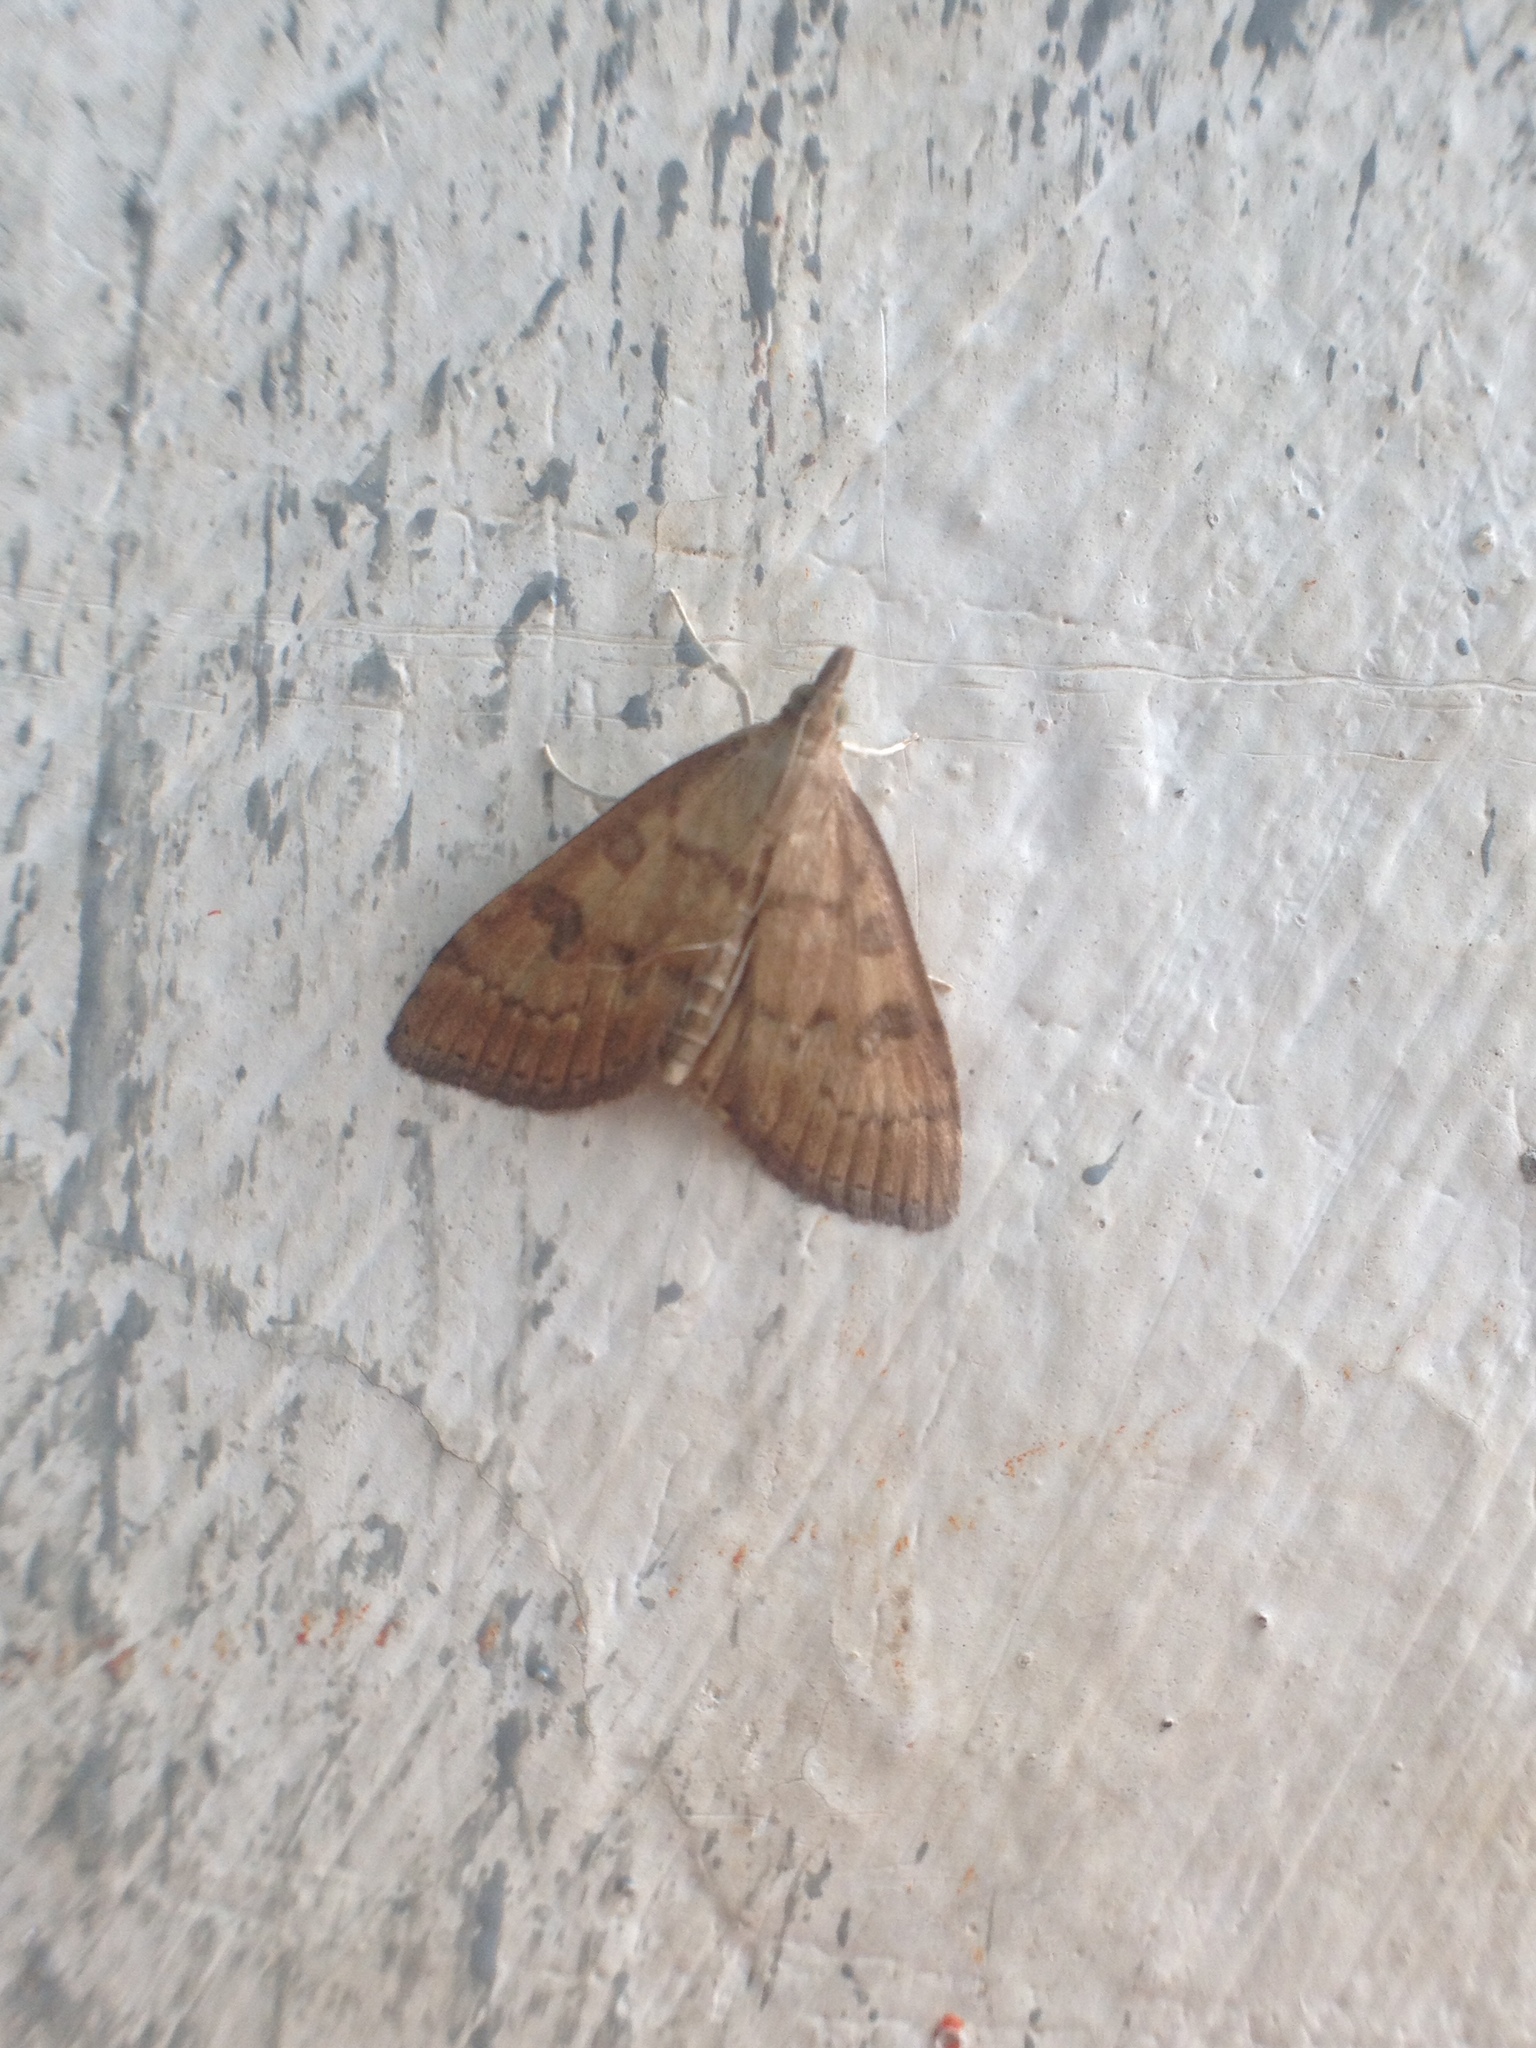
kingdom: Animalia
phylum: Arthropoda
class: Insecta
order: Lepidoptera
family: Crambidae
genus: Udea
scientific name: Udea fulvalis
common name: Fulvous pearl
